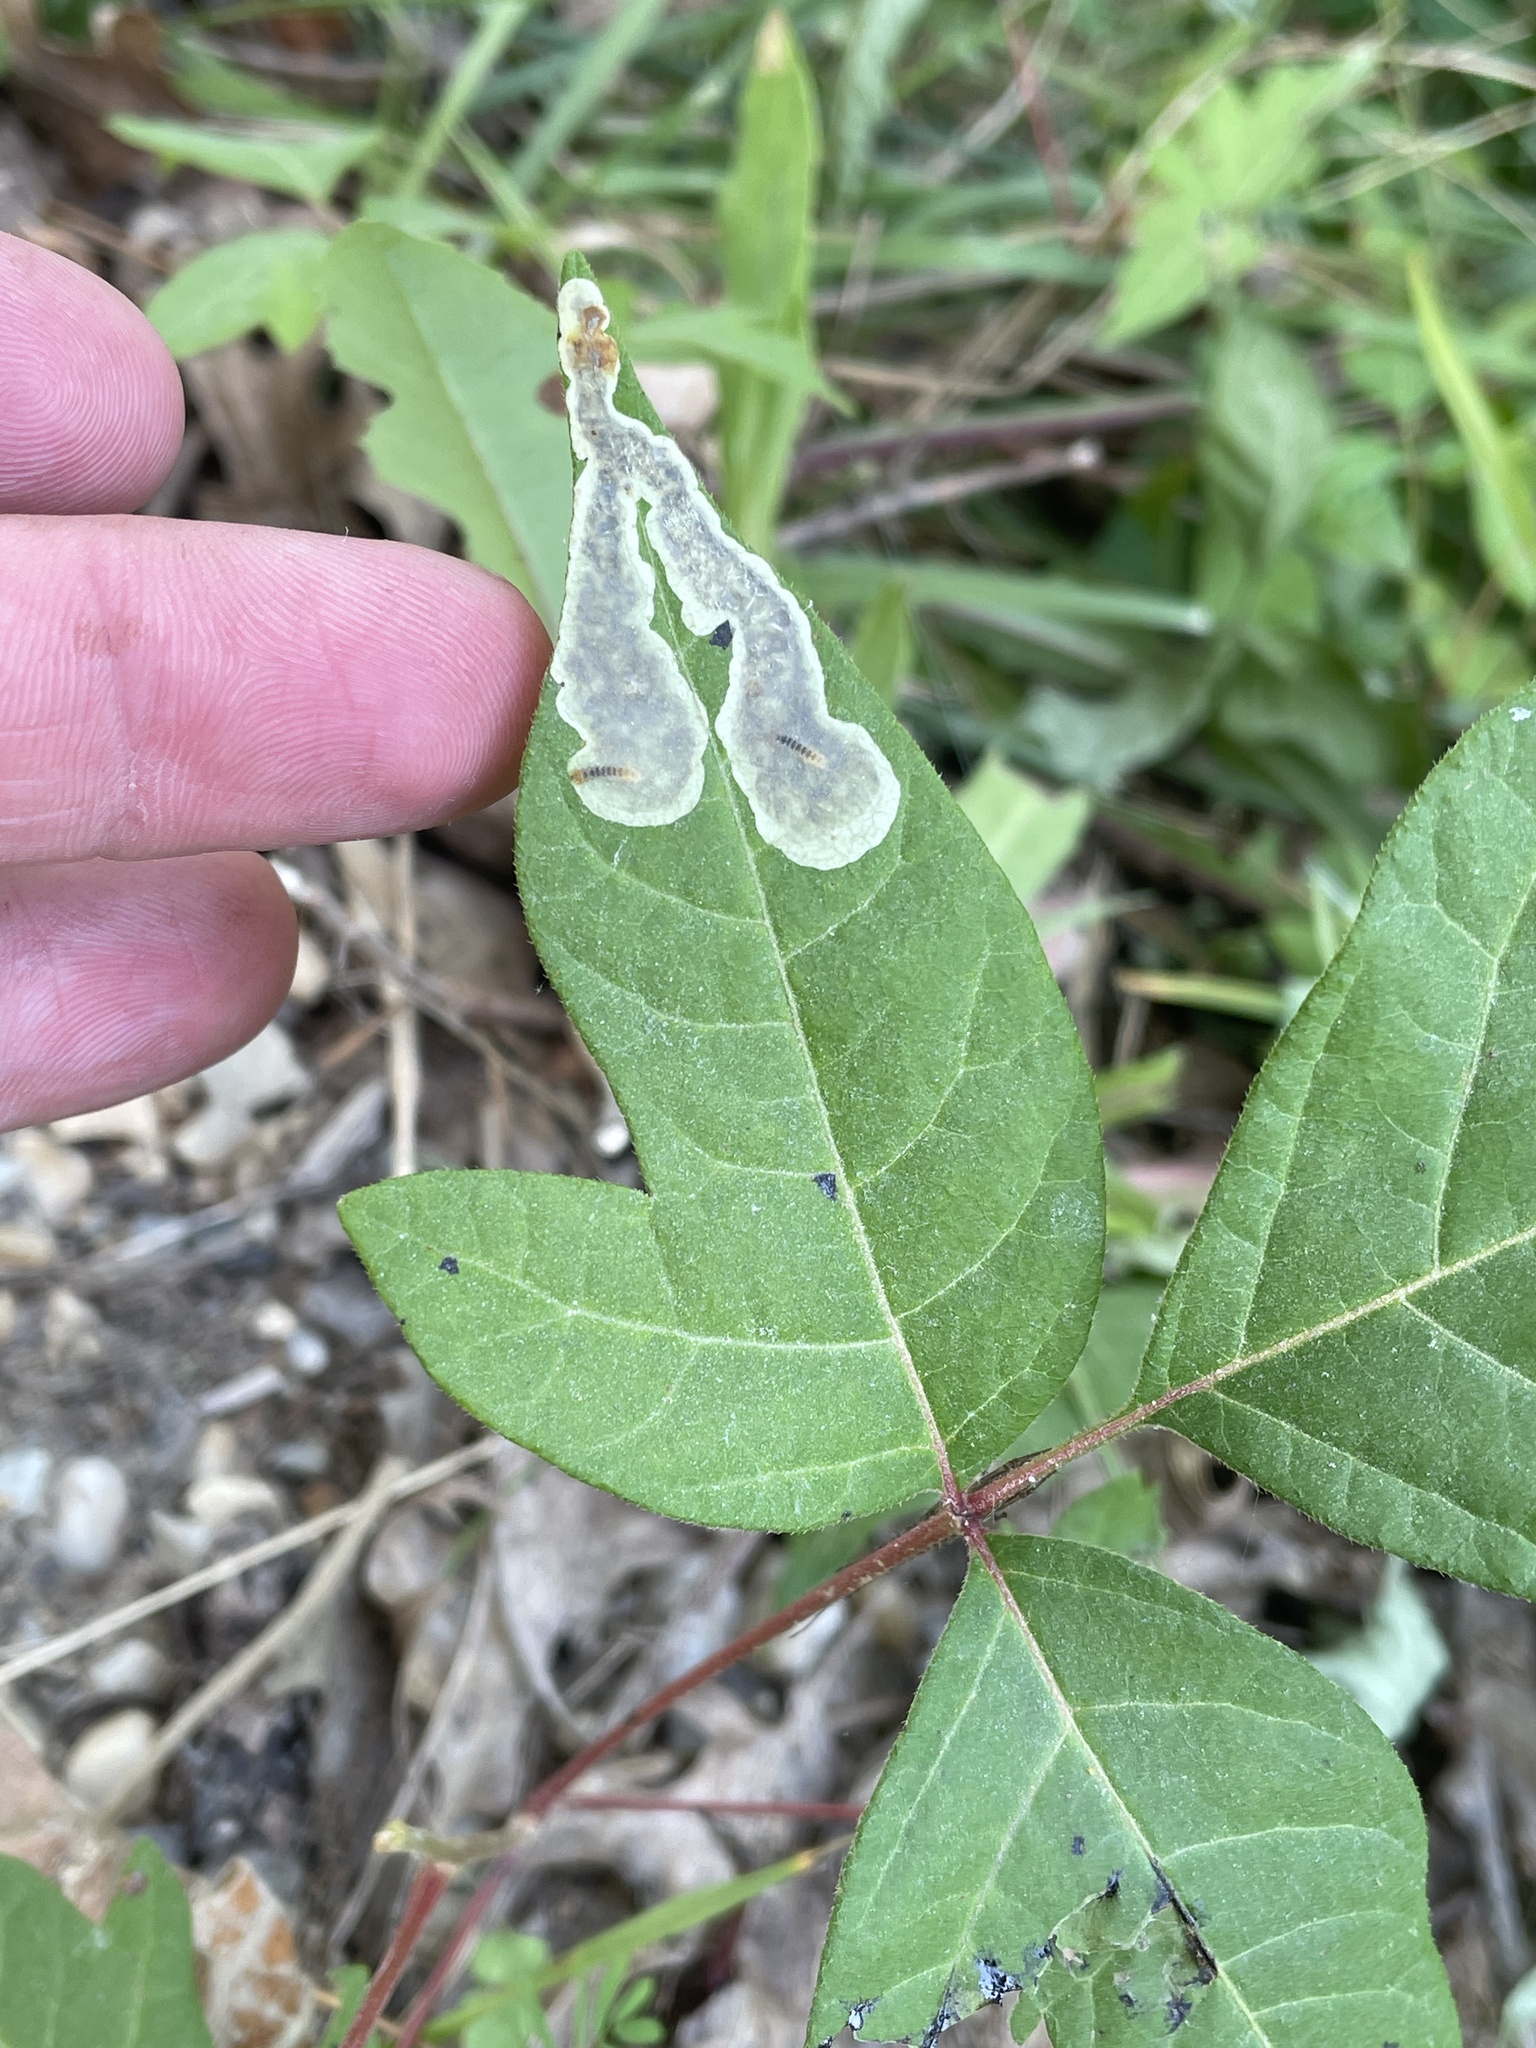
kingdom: Animalia
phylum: Arthropoda
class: Insecta
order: Lepidoptera
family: Gracillariidae
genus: Cameraria
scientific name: Cameraria guttifinitella
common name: Poison ivy leaf-miner moth
